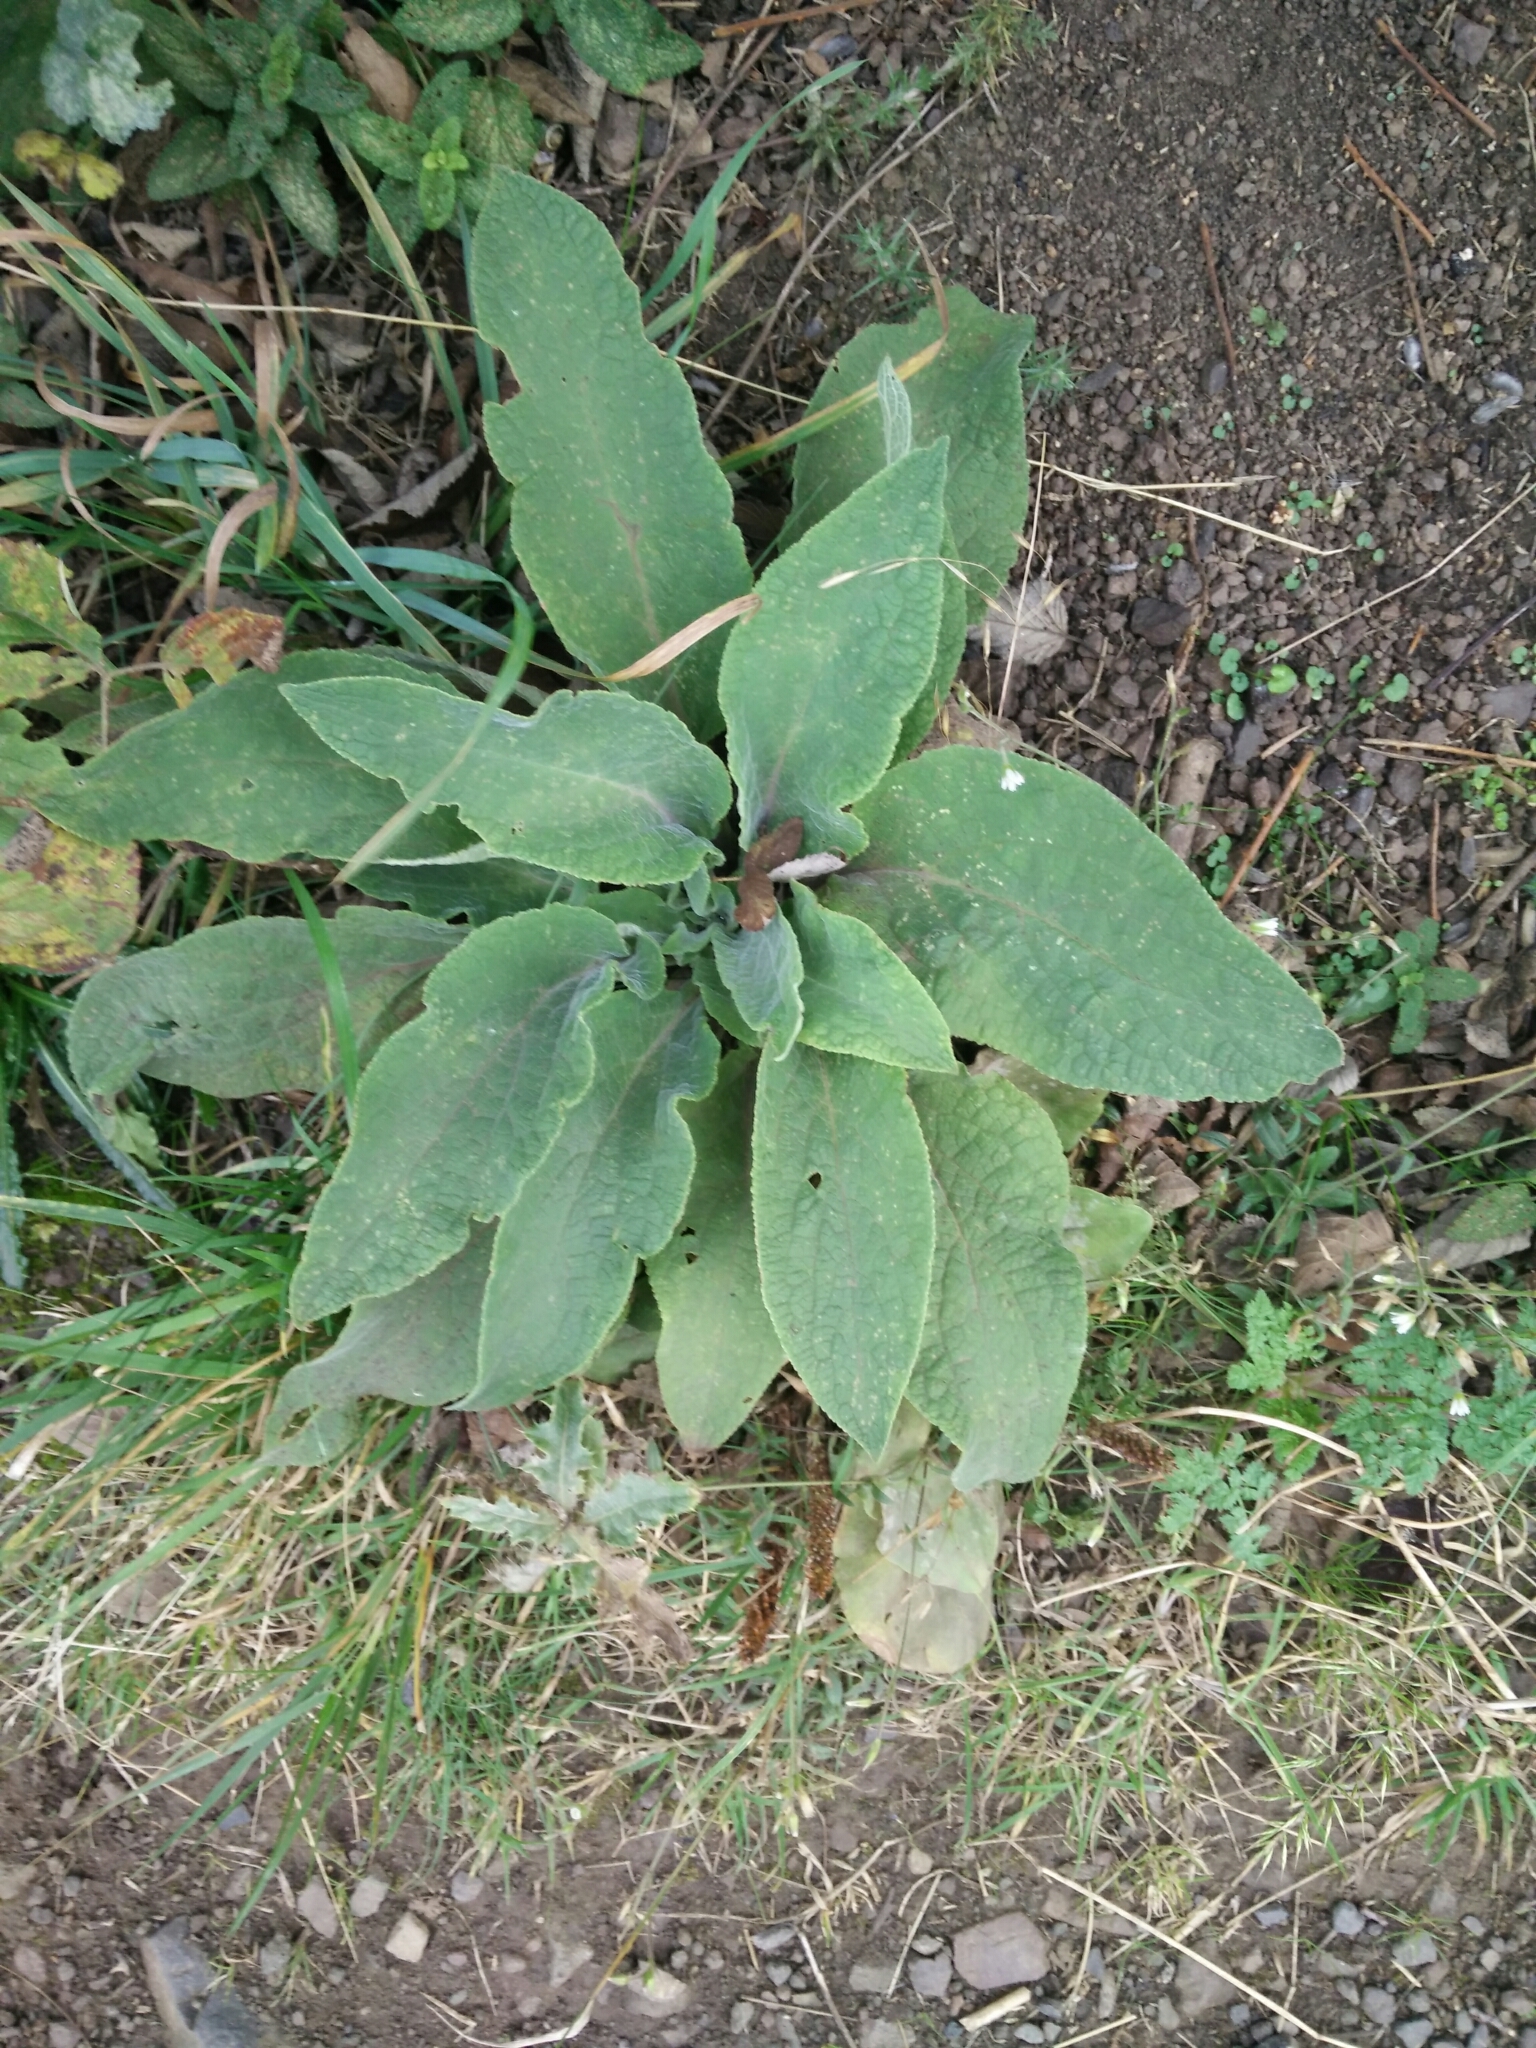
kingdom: Plantae
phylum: Tracheophyta
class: Magnoliopsida
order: Lamiales
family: Plantaginaceae
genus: Digitalis
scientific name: Digitalis purpurea
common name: Foxglove
